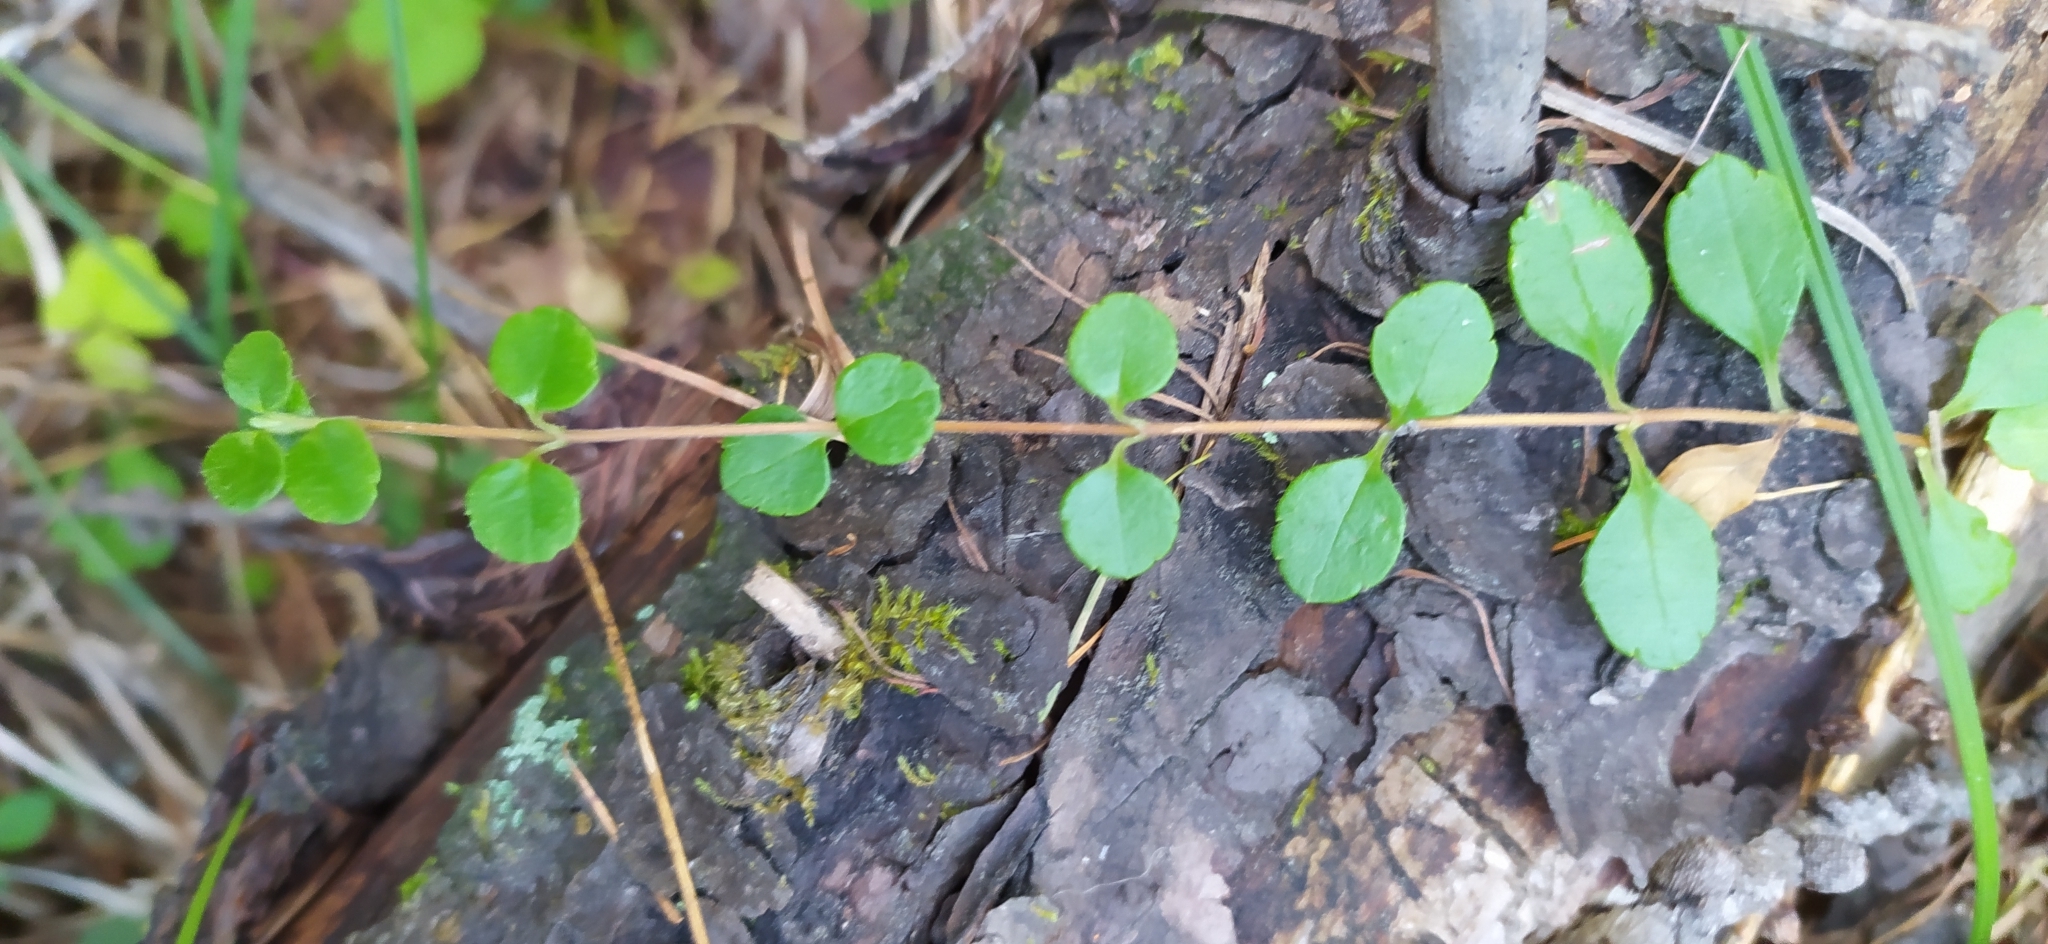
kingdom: Plantae
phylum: Tracheophyta
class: Magnoliopsida
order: Dipsacales
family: Caprifoliaceae
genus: Linnaea
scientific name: Linnaea borealis
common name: Twinflower
